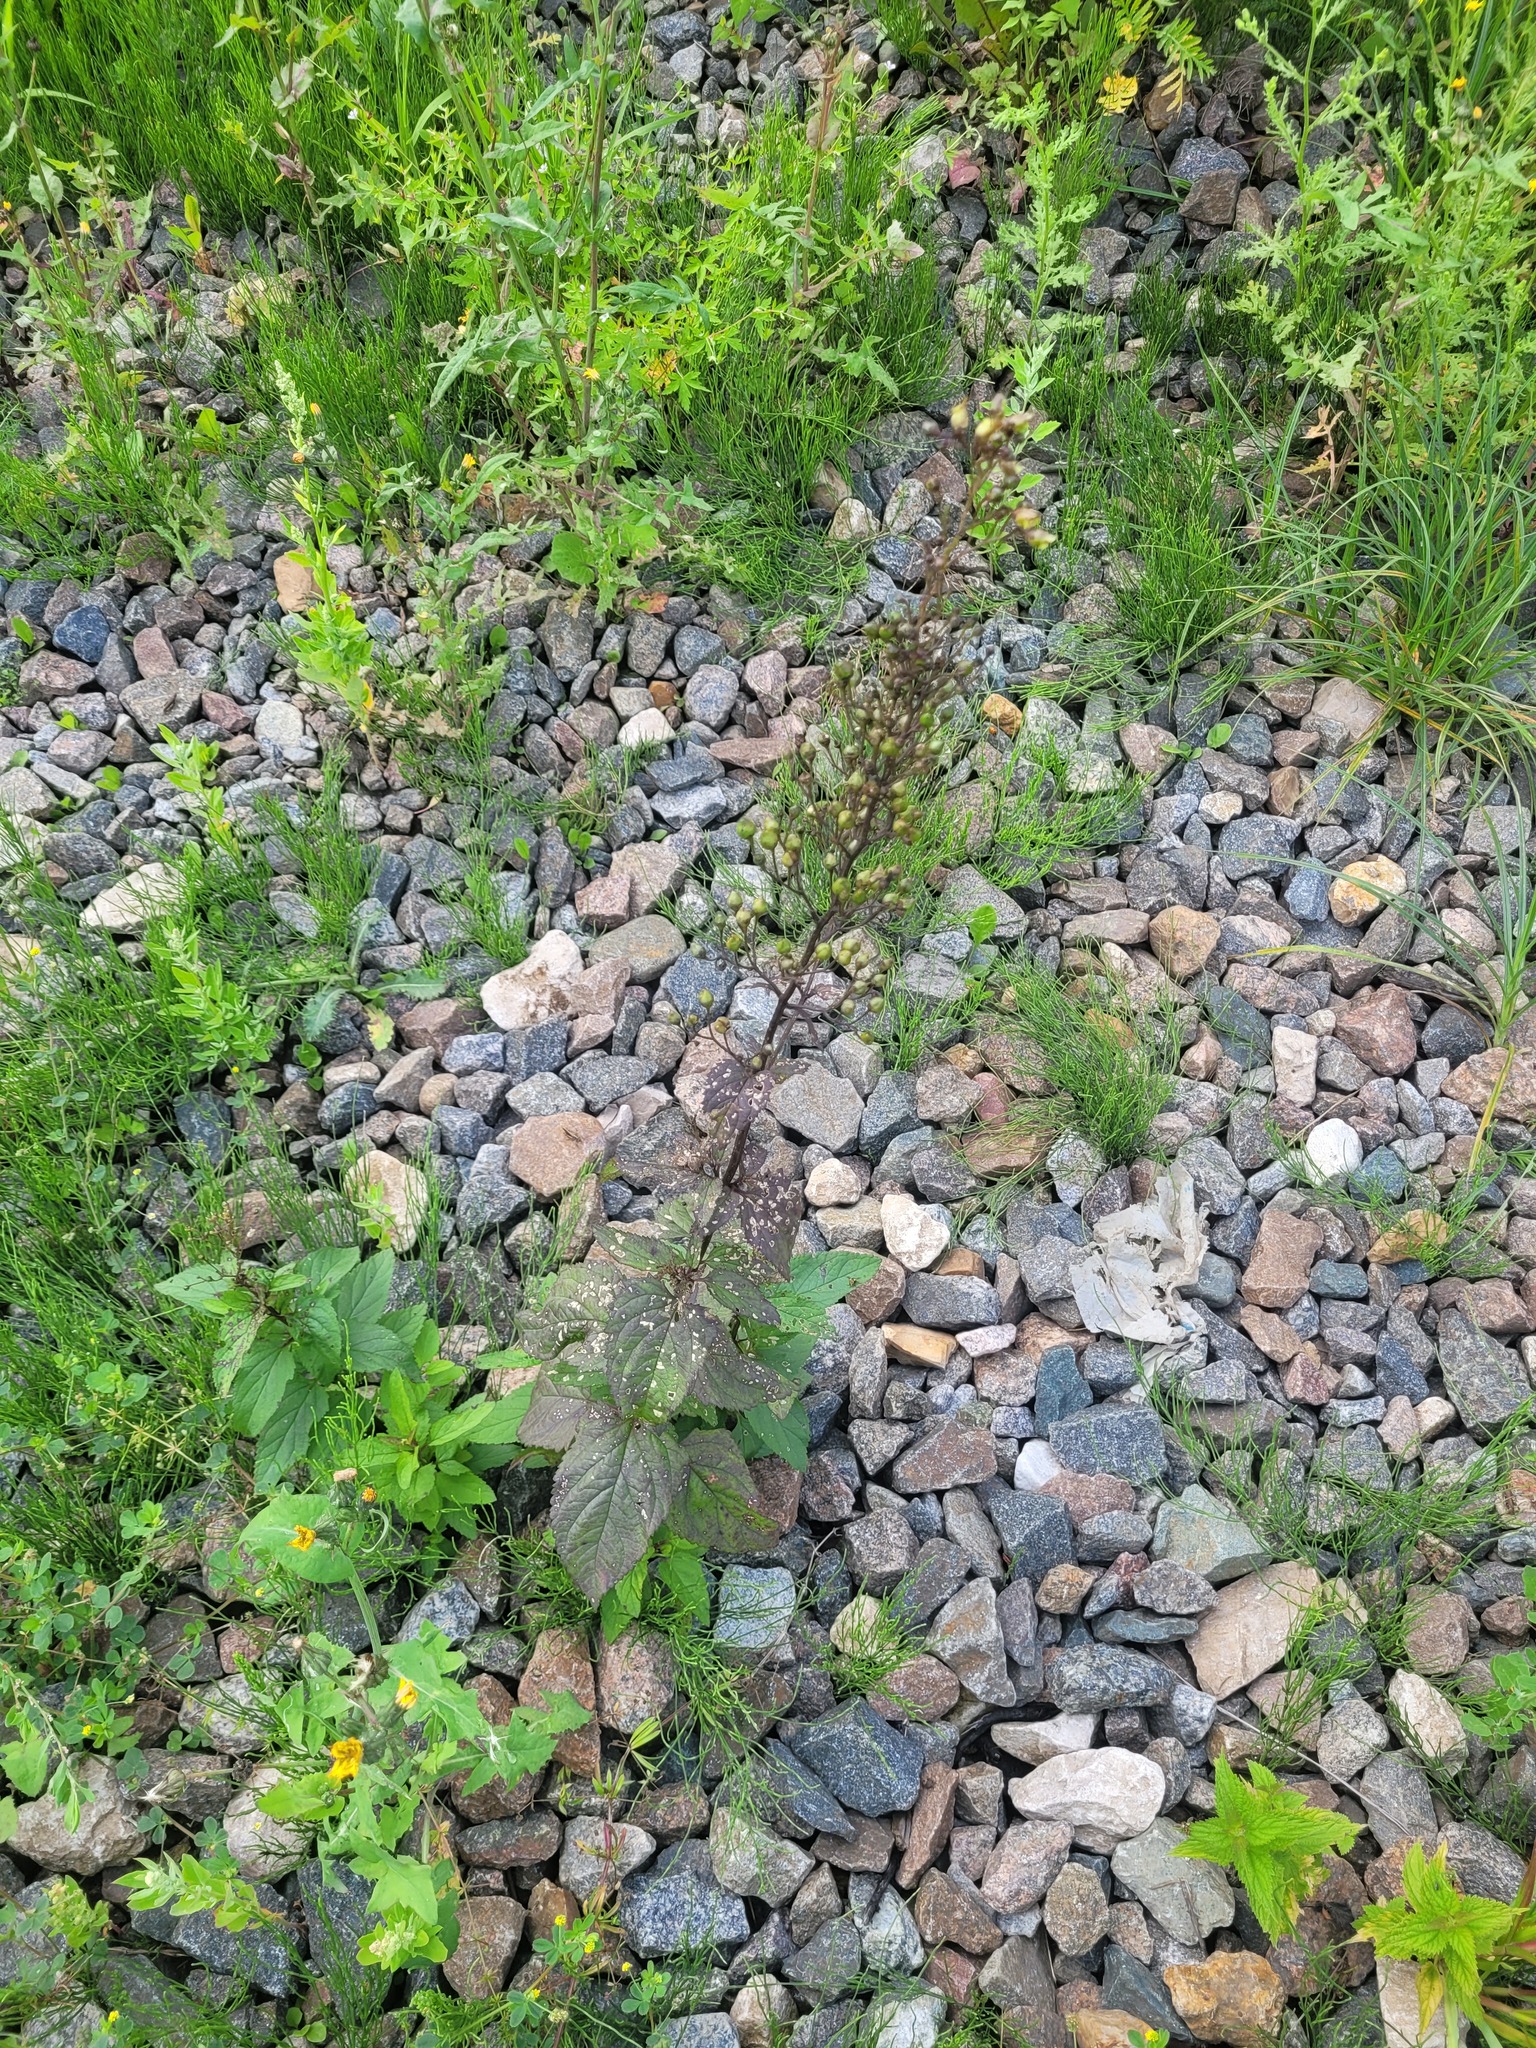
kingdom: Plantae
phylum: Tracheophyta
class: Magnoliopsida
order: Lamiales
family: Scrophulariaceae
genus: Scrophularia
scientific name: Scrophularia nodosa
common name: Common figwort
